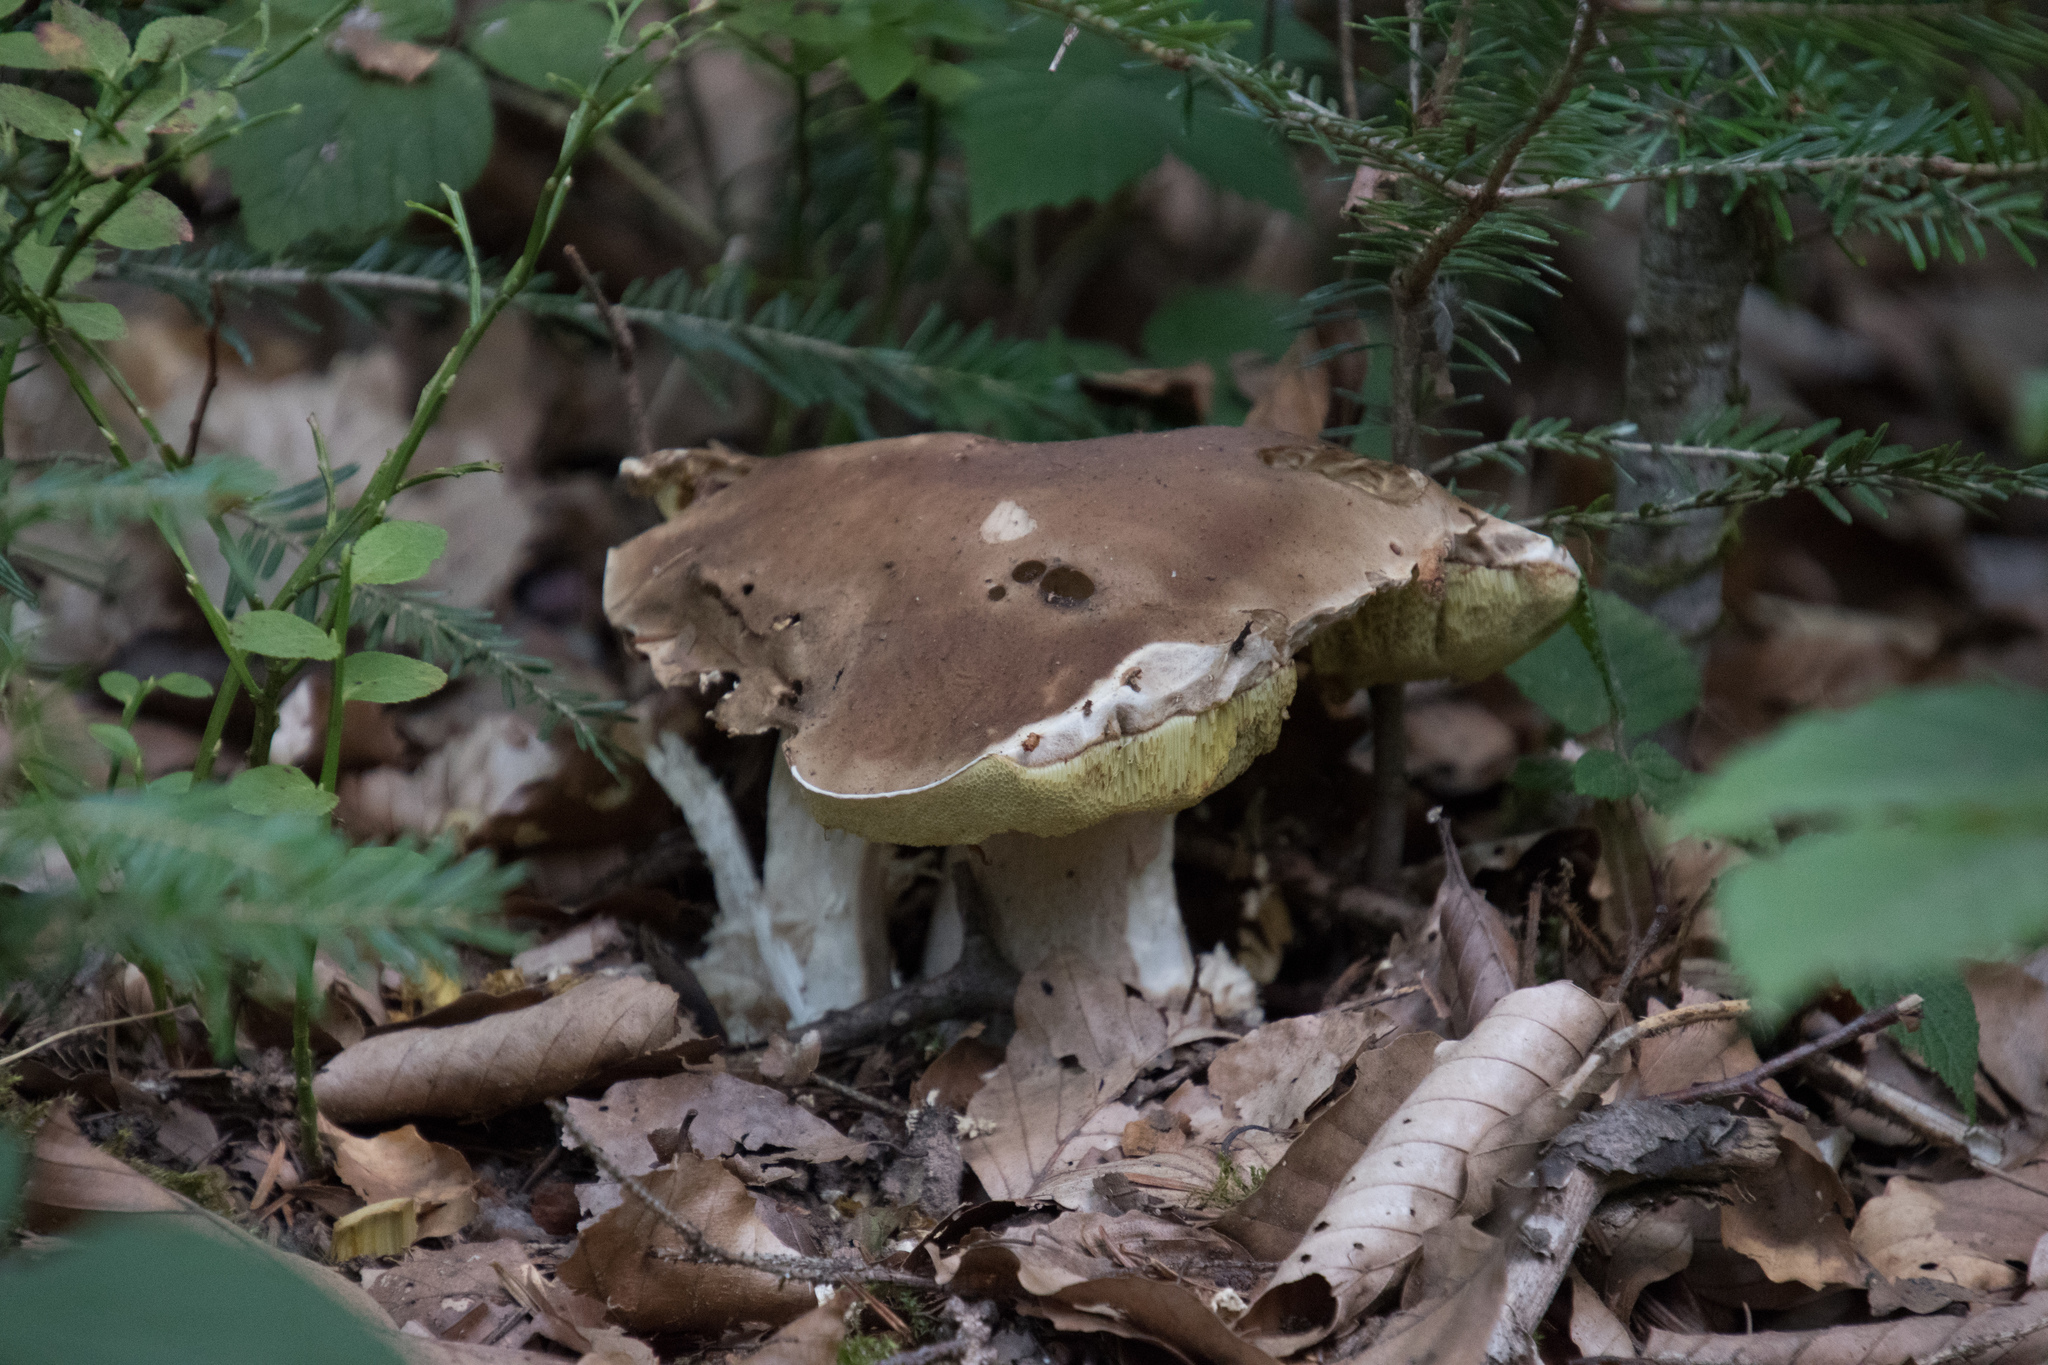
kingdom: Fungi
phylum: Basidiomycota
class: Agaricomycetes
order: Boletales
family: Boletaceae
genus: Boletus
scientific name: Boletus edulis
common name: Cep
